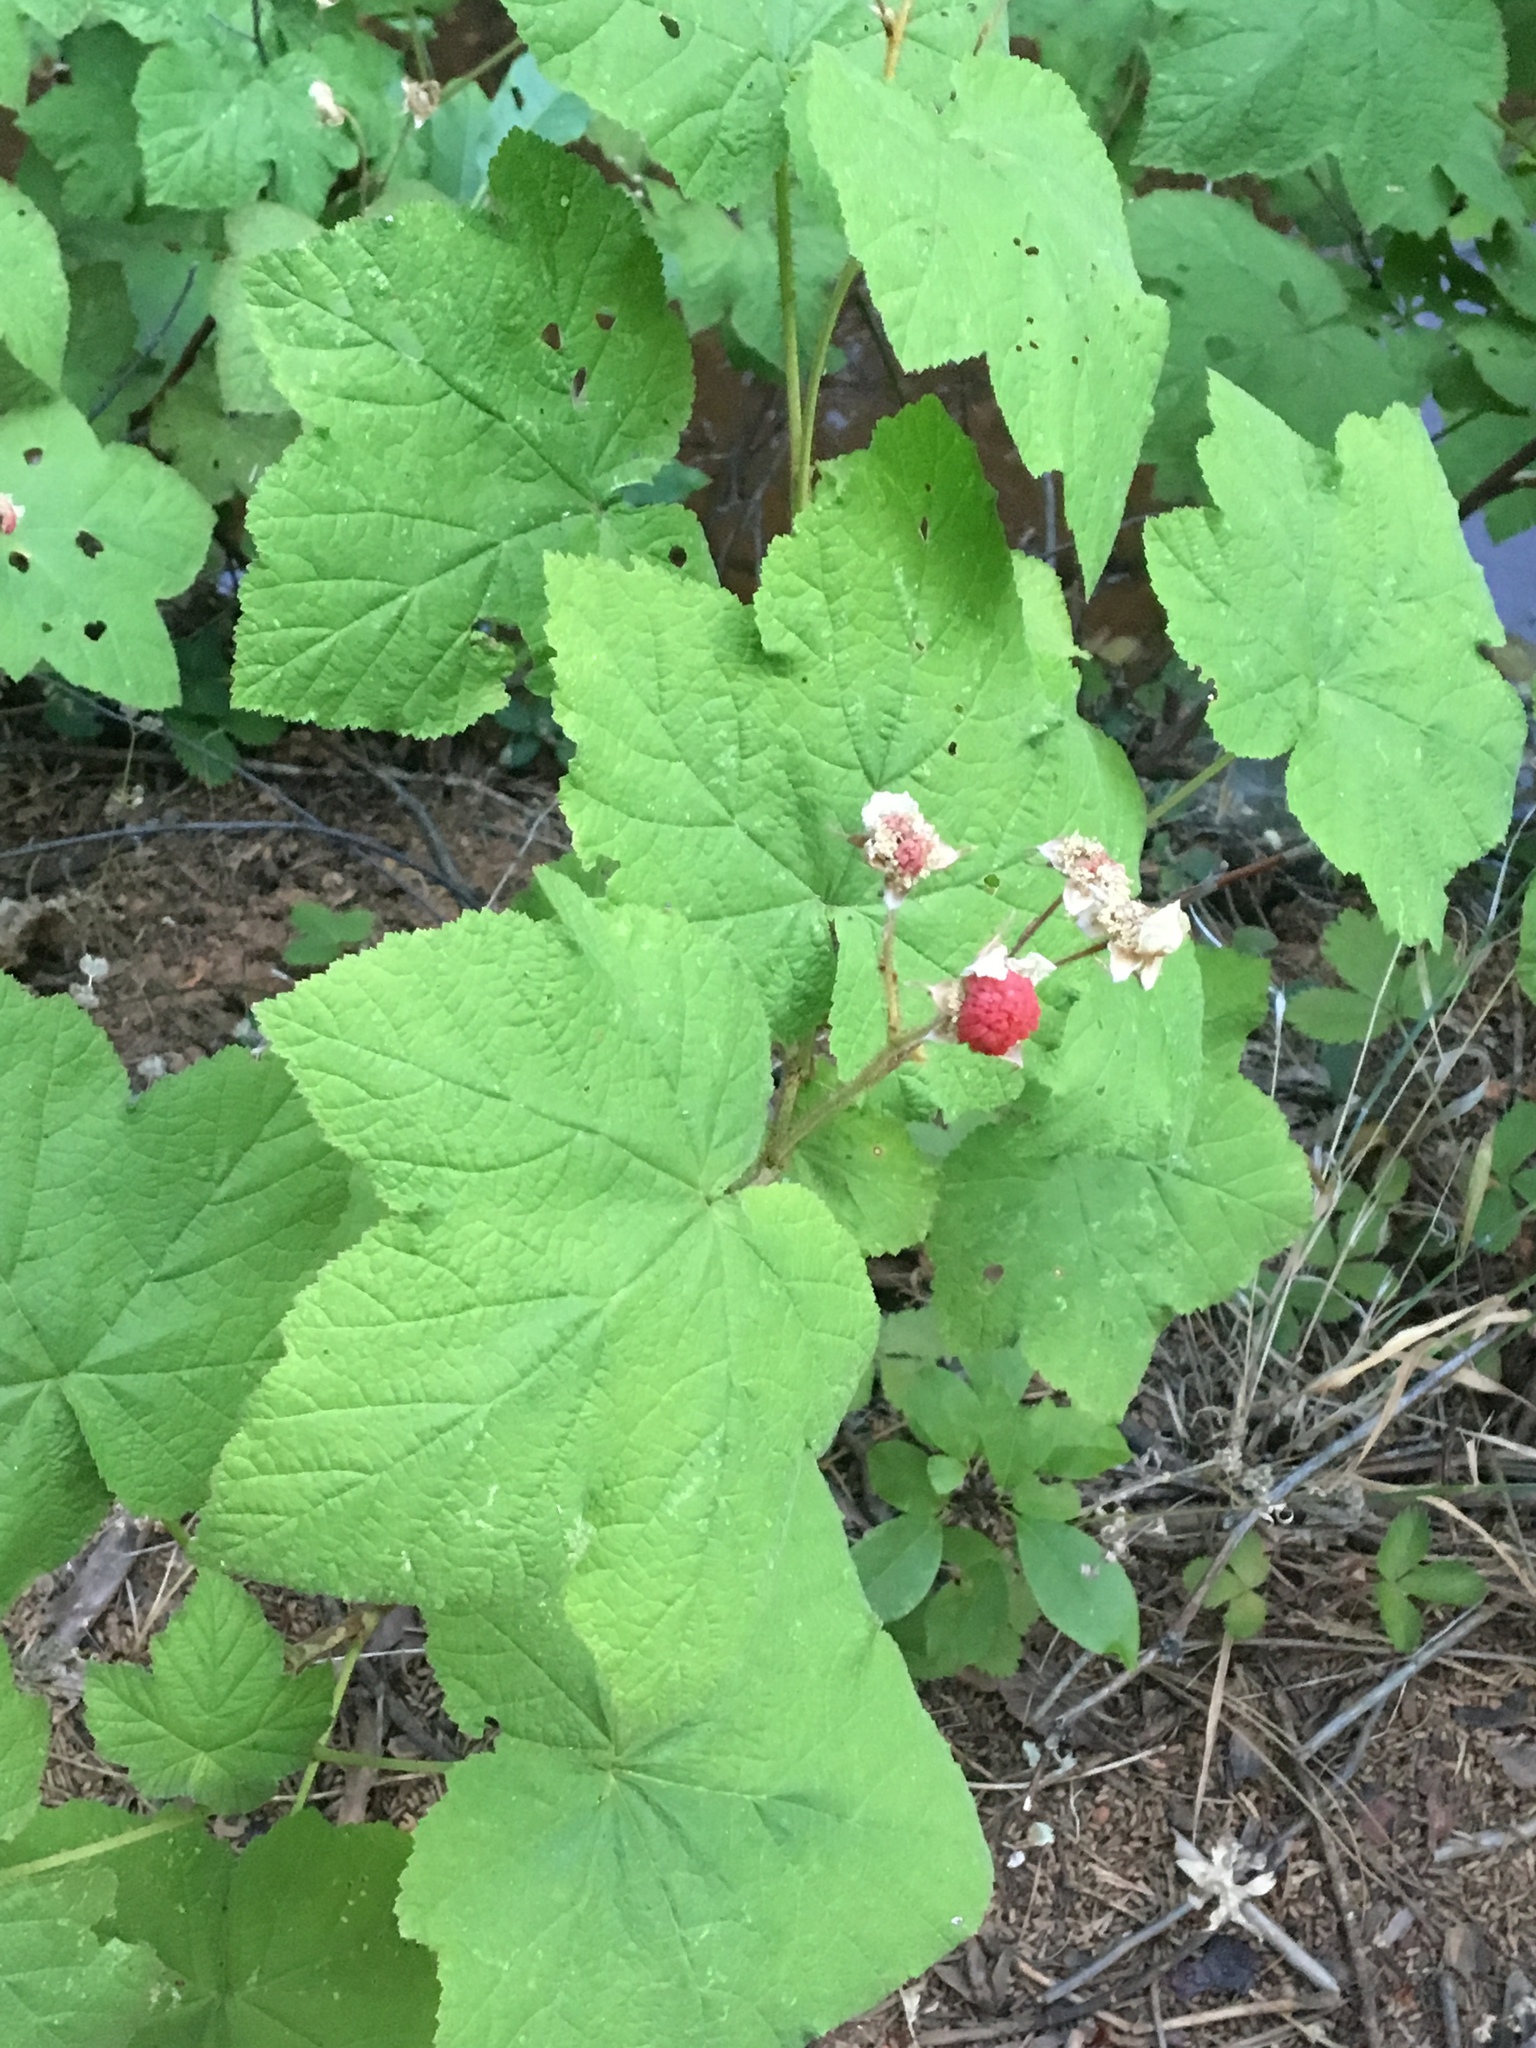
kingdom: Plantae
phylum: Tracheophyta
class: Magnoliopsida
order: Rosales
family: Rosaceae
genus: Rubus
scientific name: Rubus parviflorus
